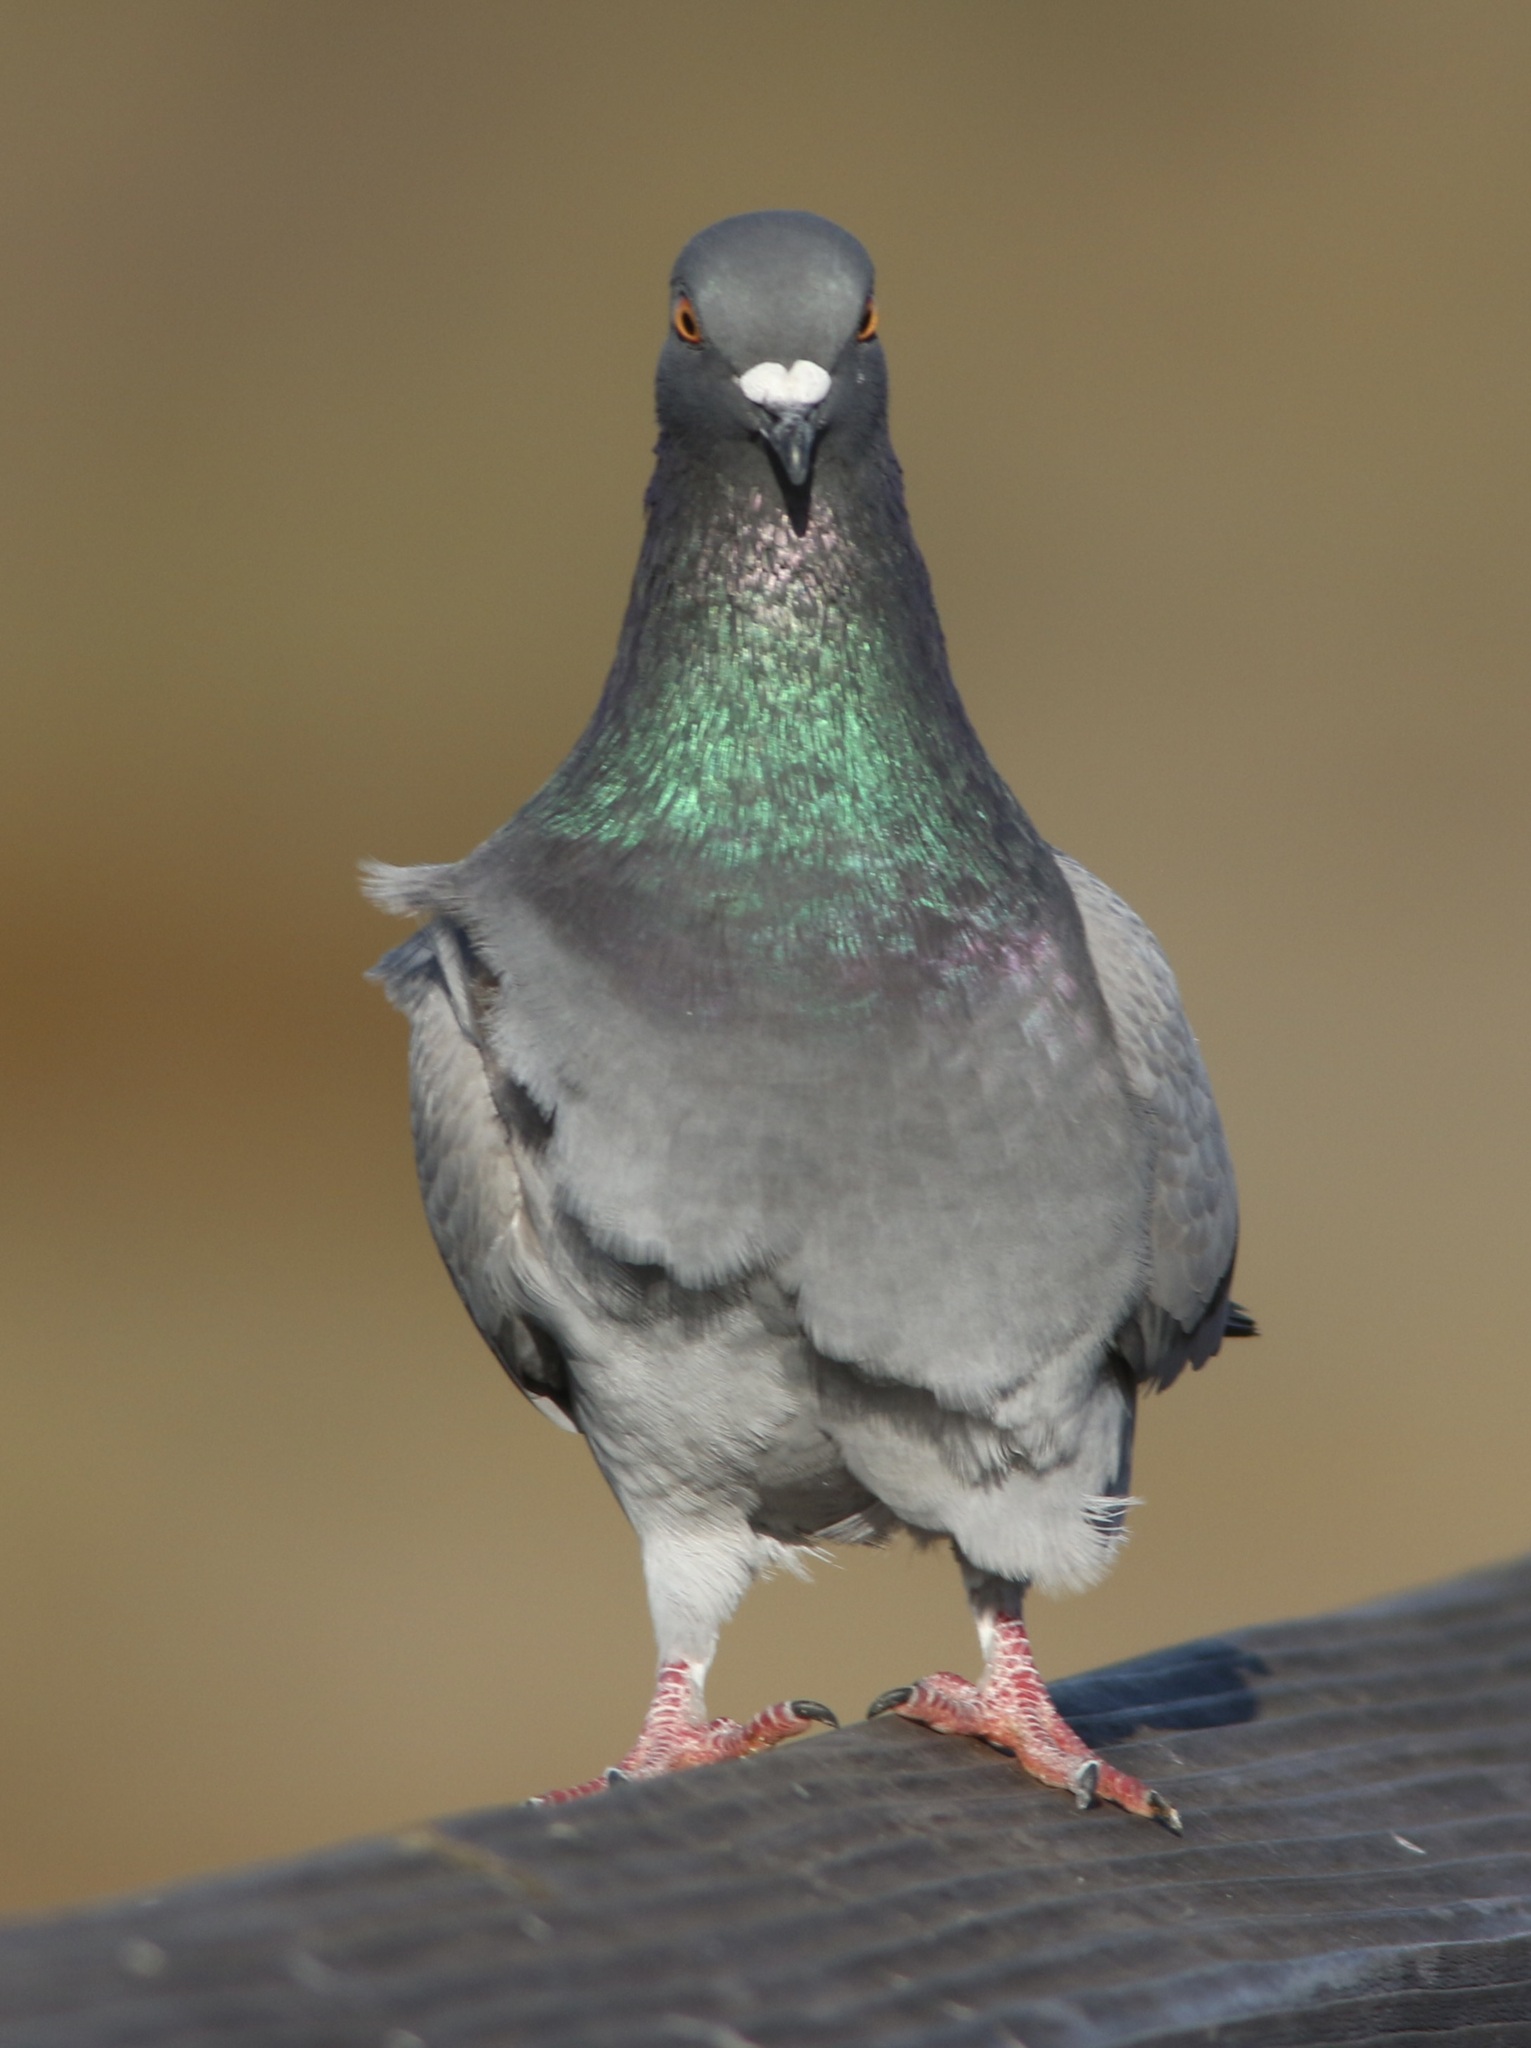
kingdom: Animalia
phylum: Chordata
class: Aves
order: Columbiformes
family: Columbidae
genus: Columba
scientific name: Columba livia
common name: Rock pigeon
